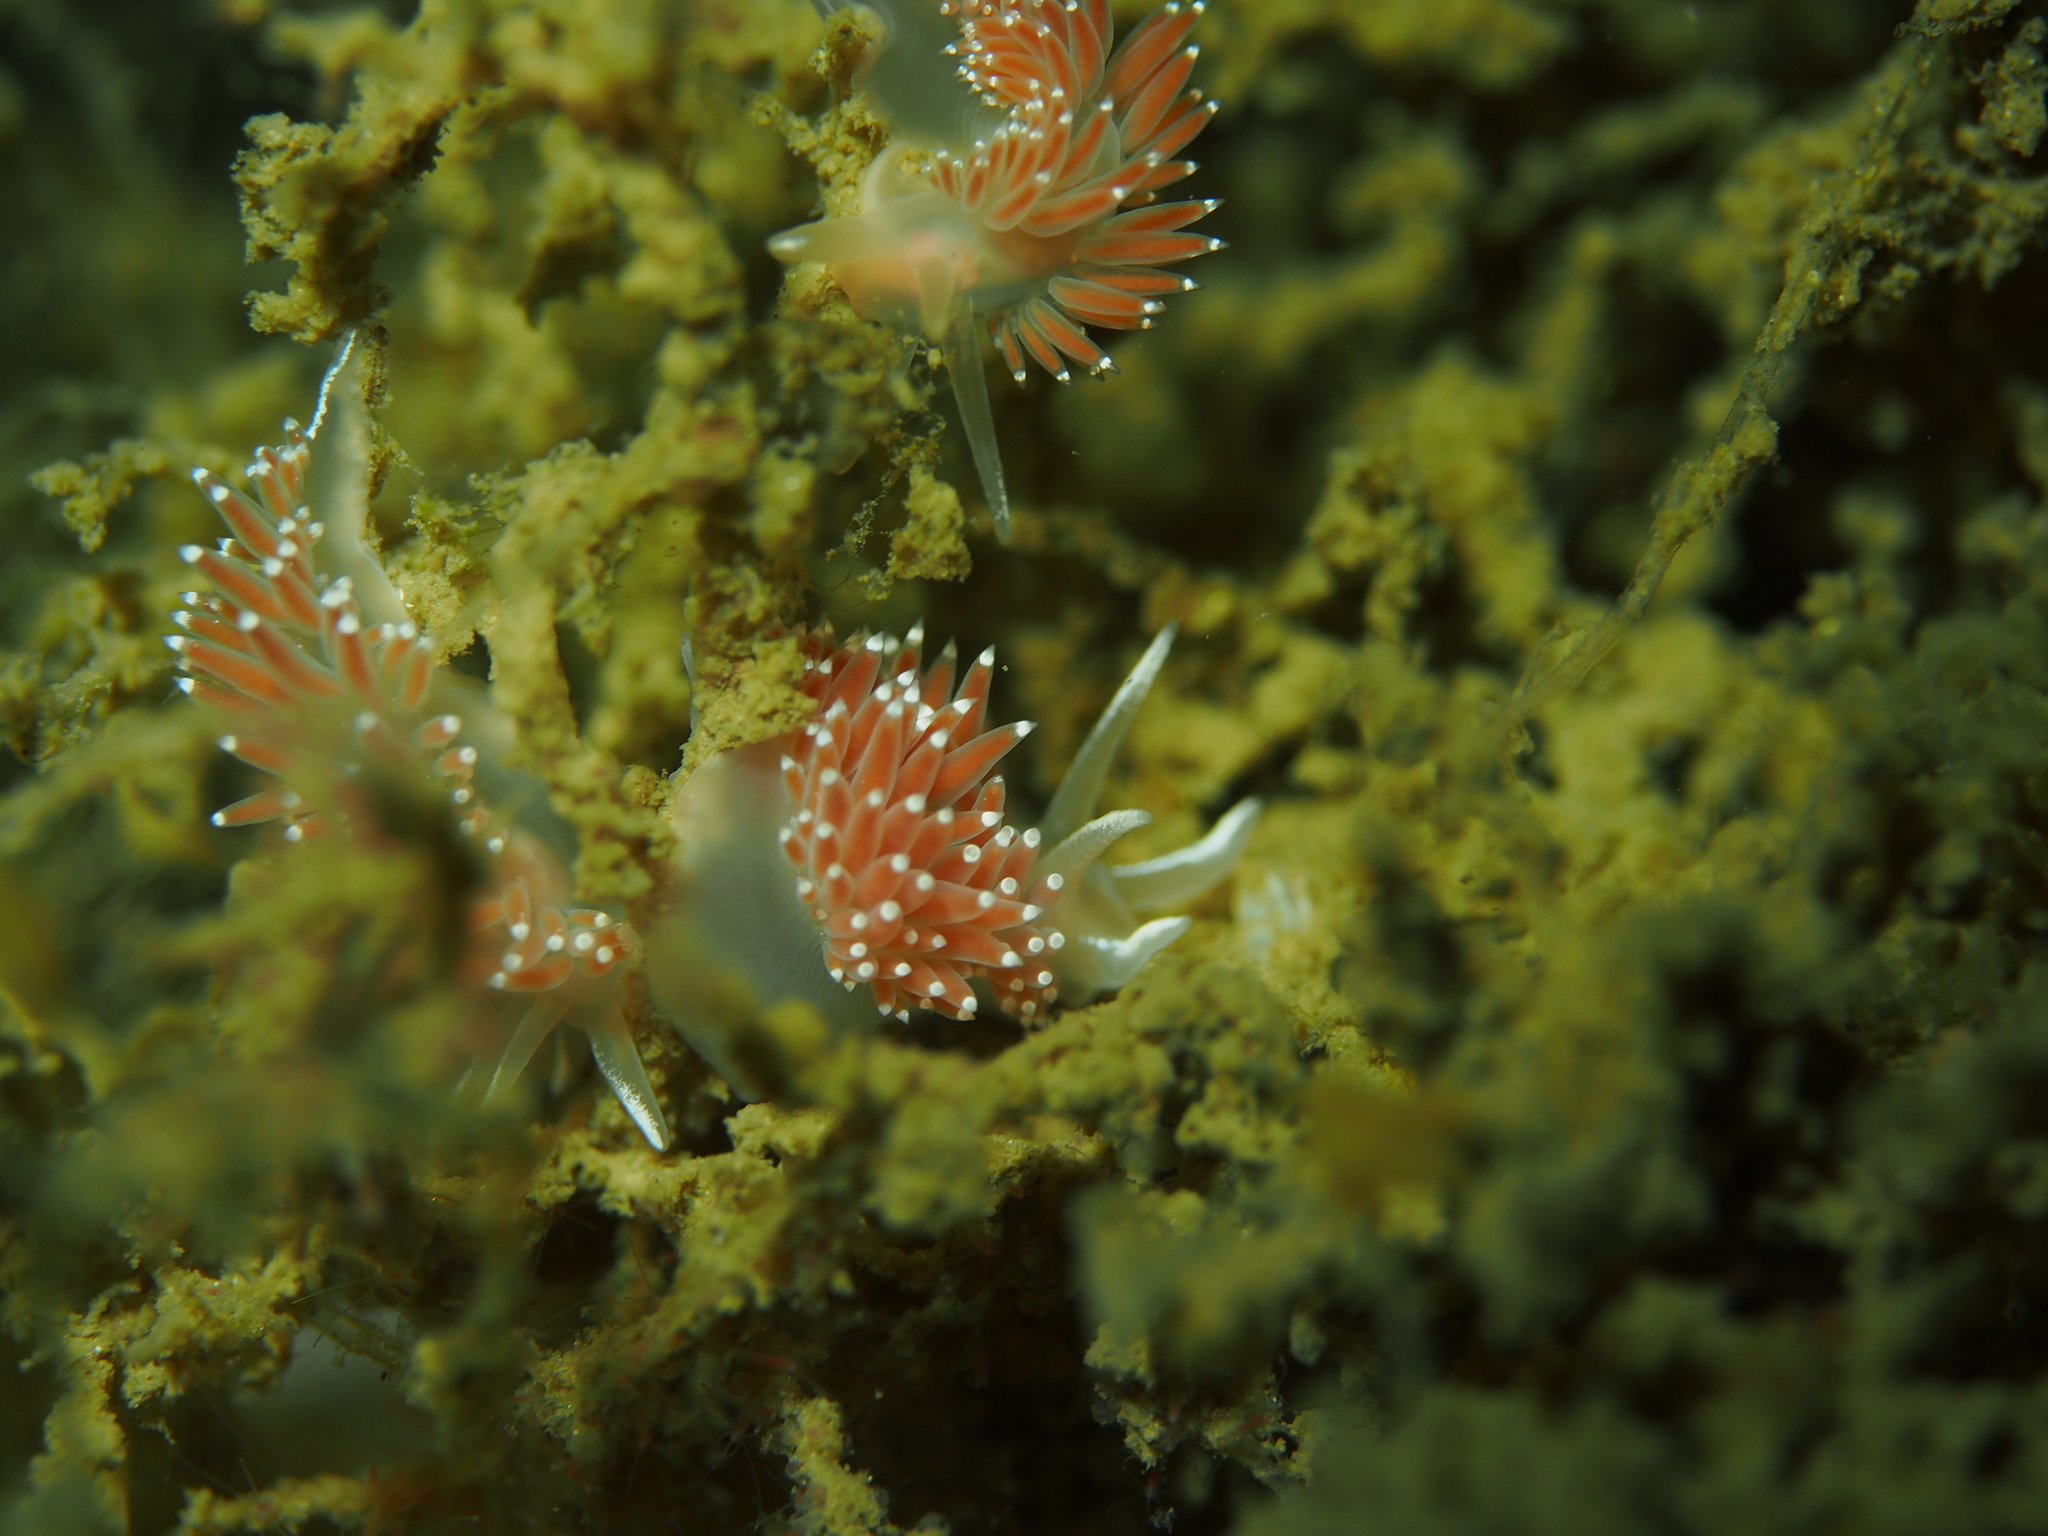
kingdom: Animalia
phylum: Mollusca
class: Gastropoda
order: Nudibranchia
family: Coryphellidae
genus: Coryphella
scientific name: Coryphella verrucosa
